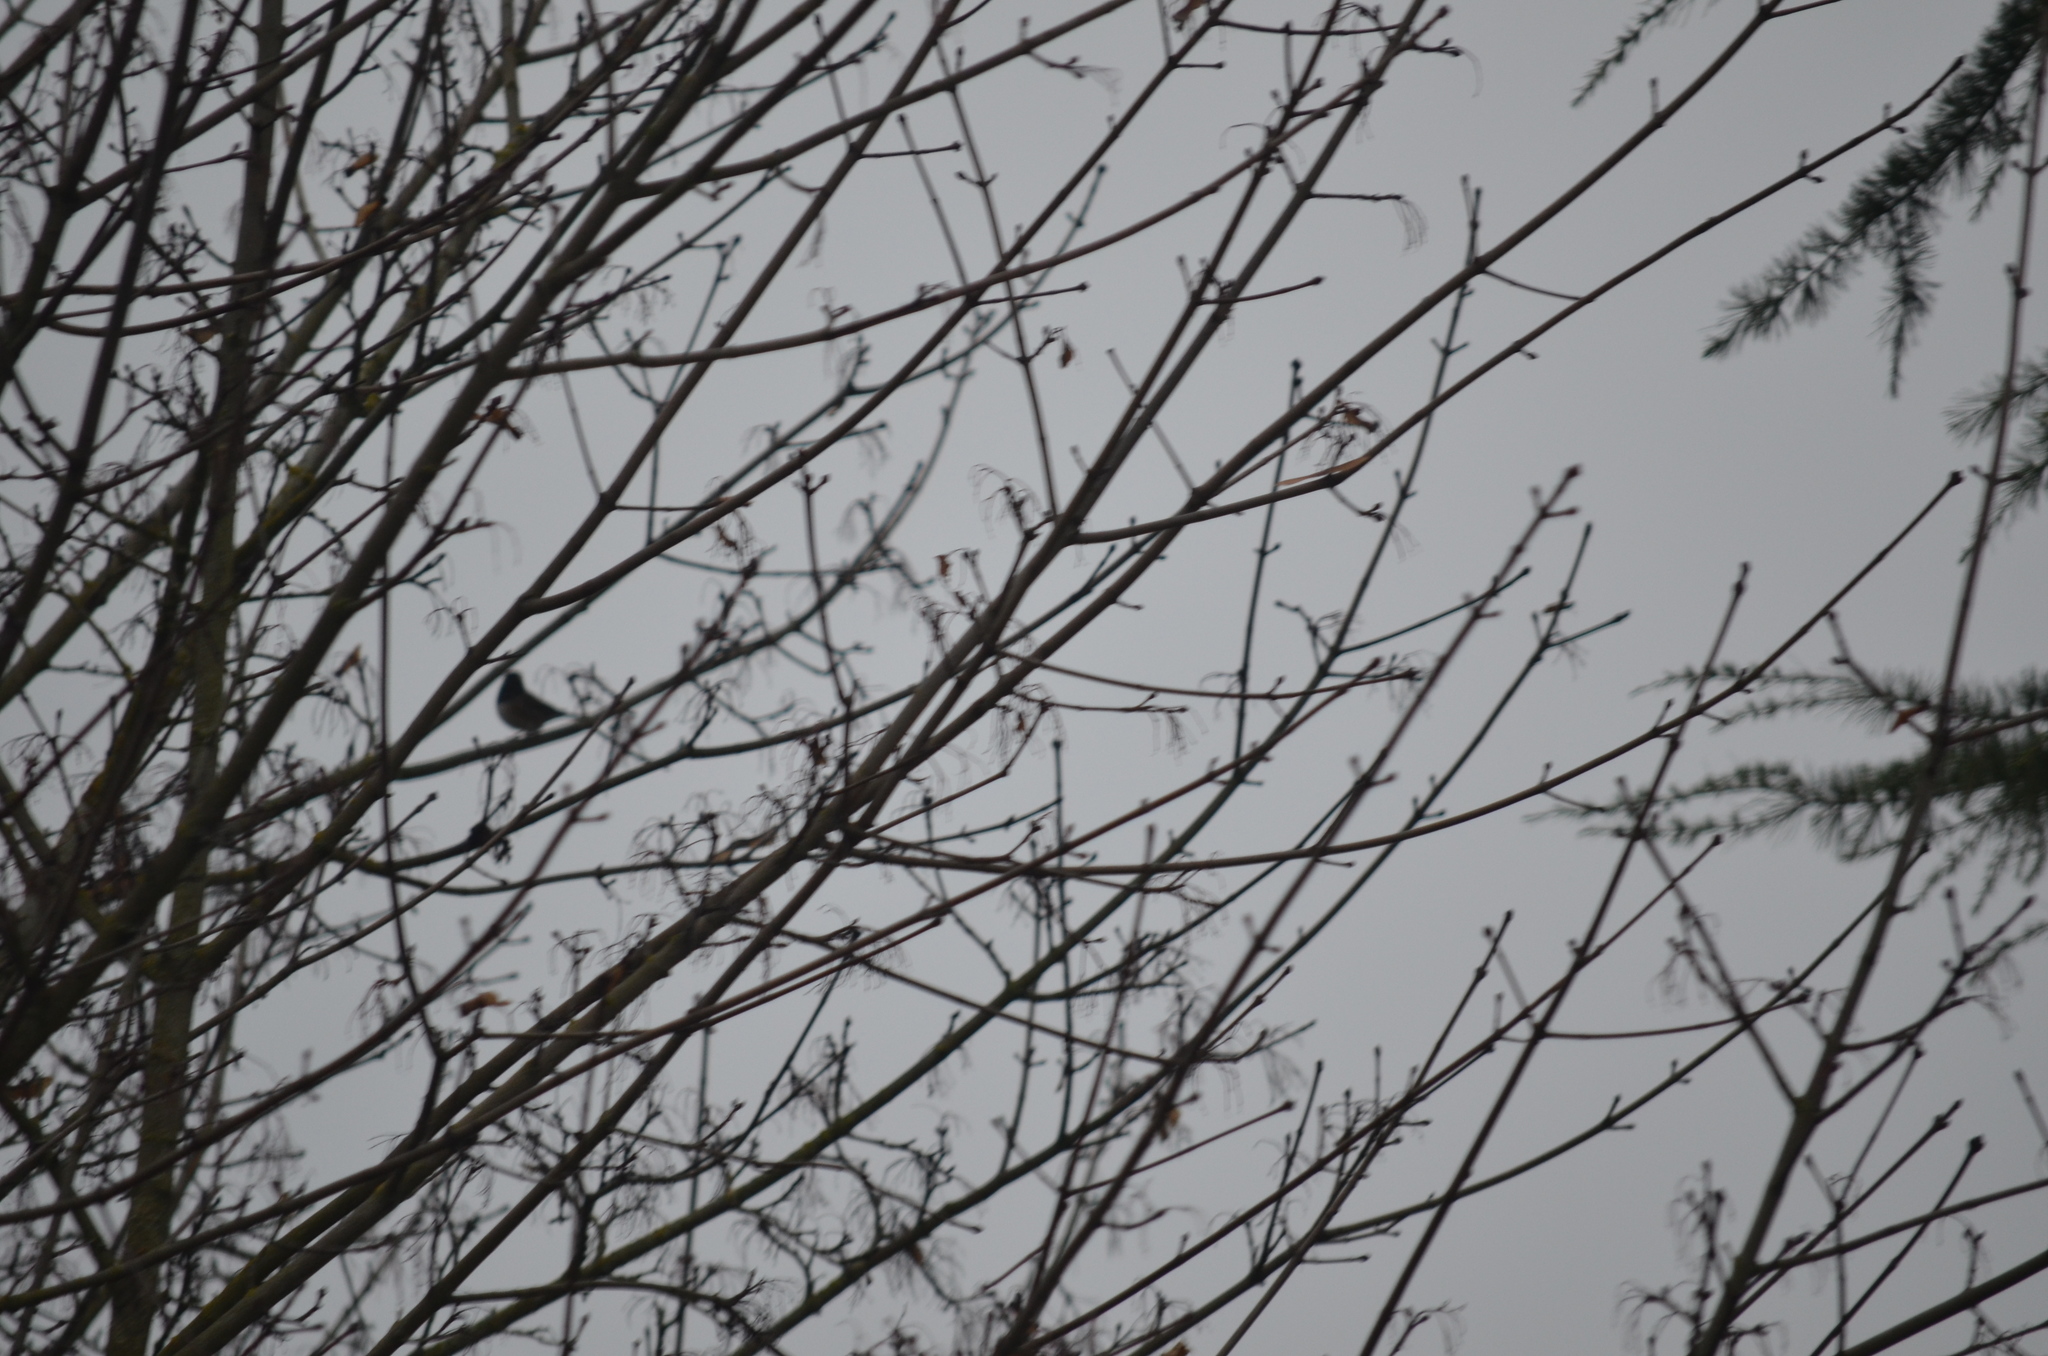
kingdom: Animalia
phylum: Chordata
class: Aves
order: Passeriformes
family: Passerellidae
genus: Junco
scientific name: Junco hyemalis
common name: Dark-eyed junco
